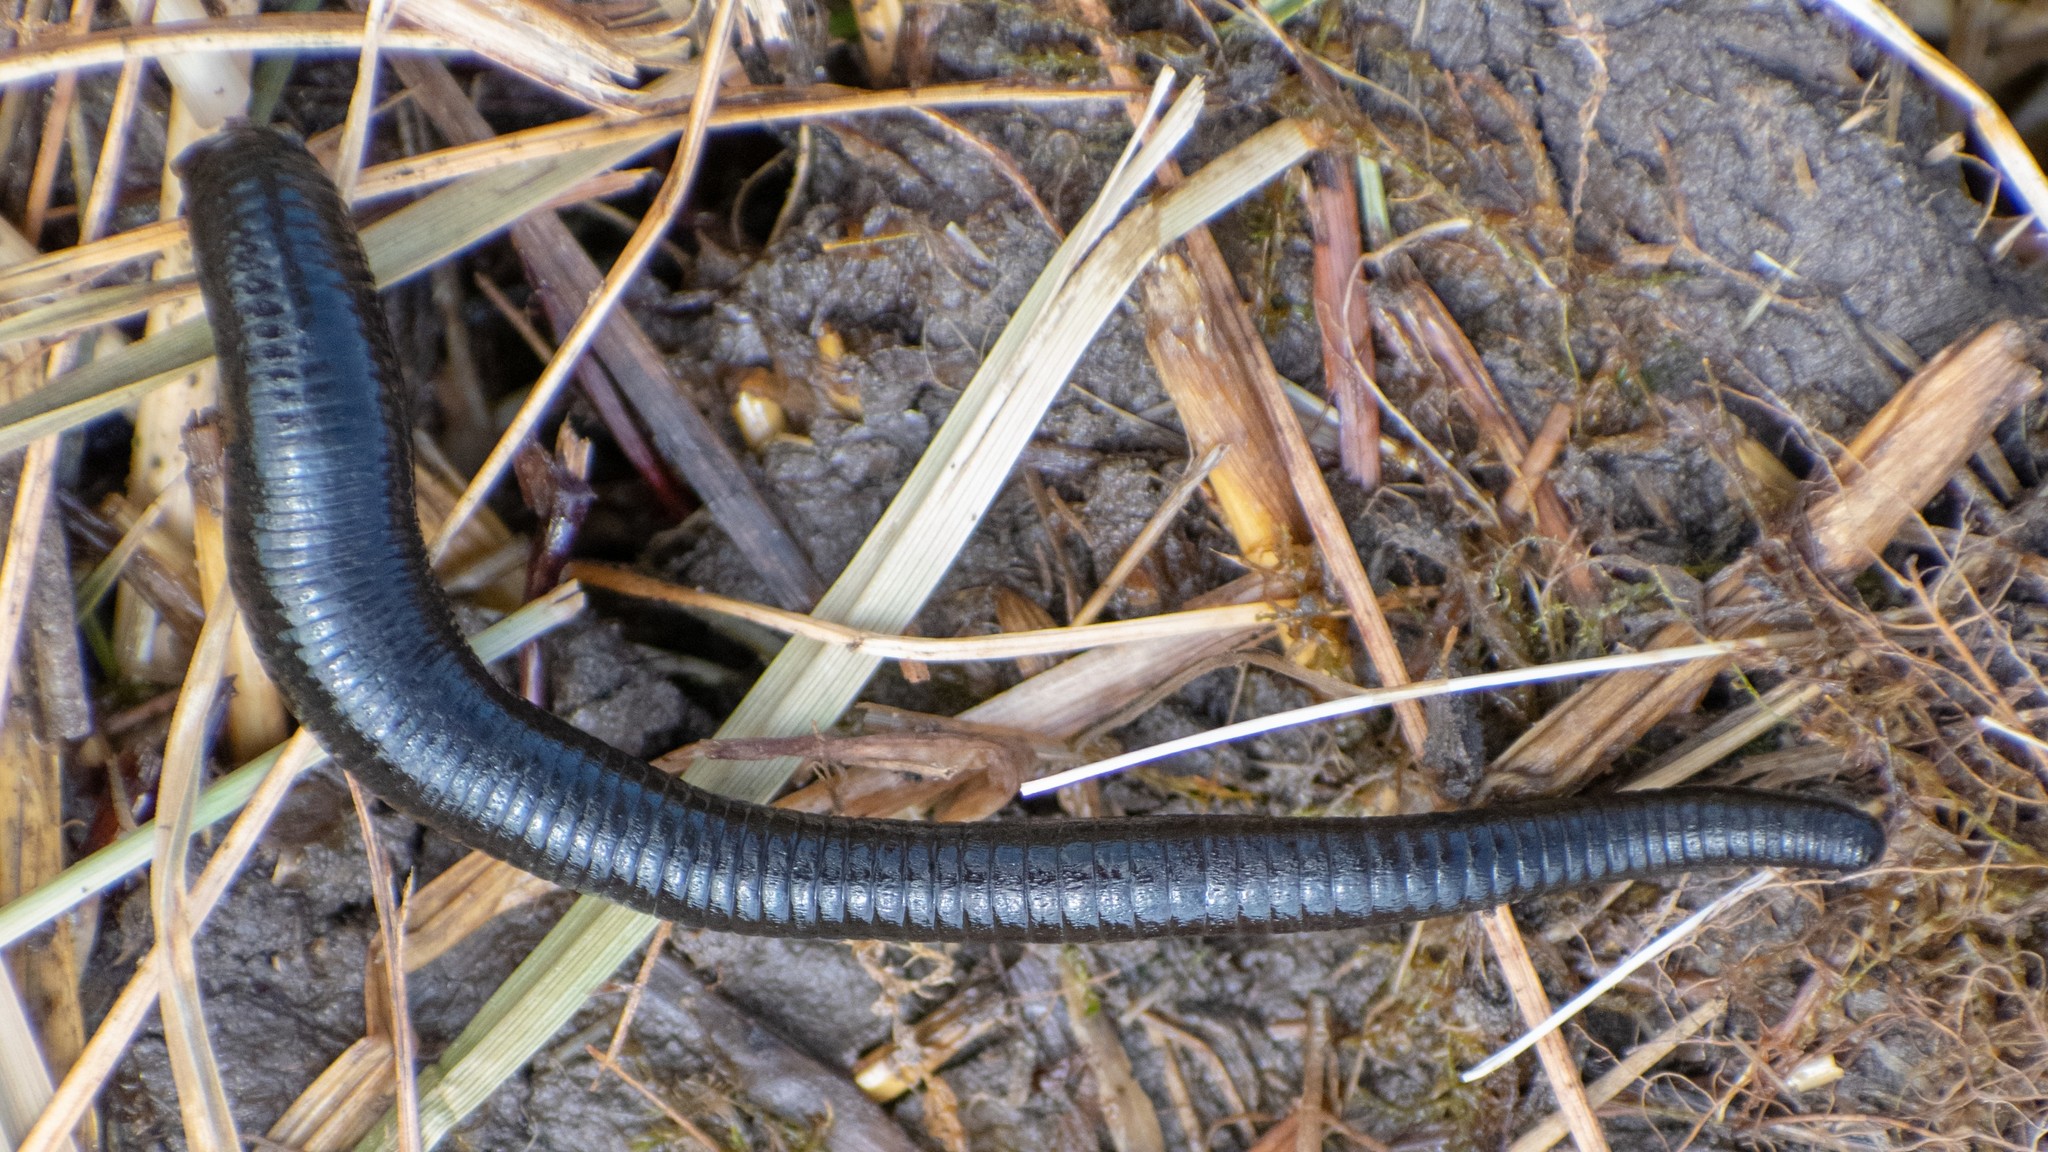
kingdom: Animalia
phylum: Annelida
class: Clitellata
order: Arhynchobdellida
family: Haemopidae
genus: Haemopis
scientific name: Haemopis sanguisuga
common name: Horse leech
